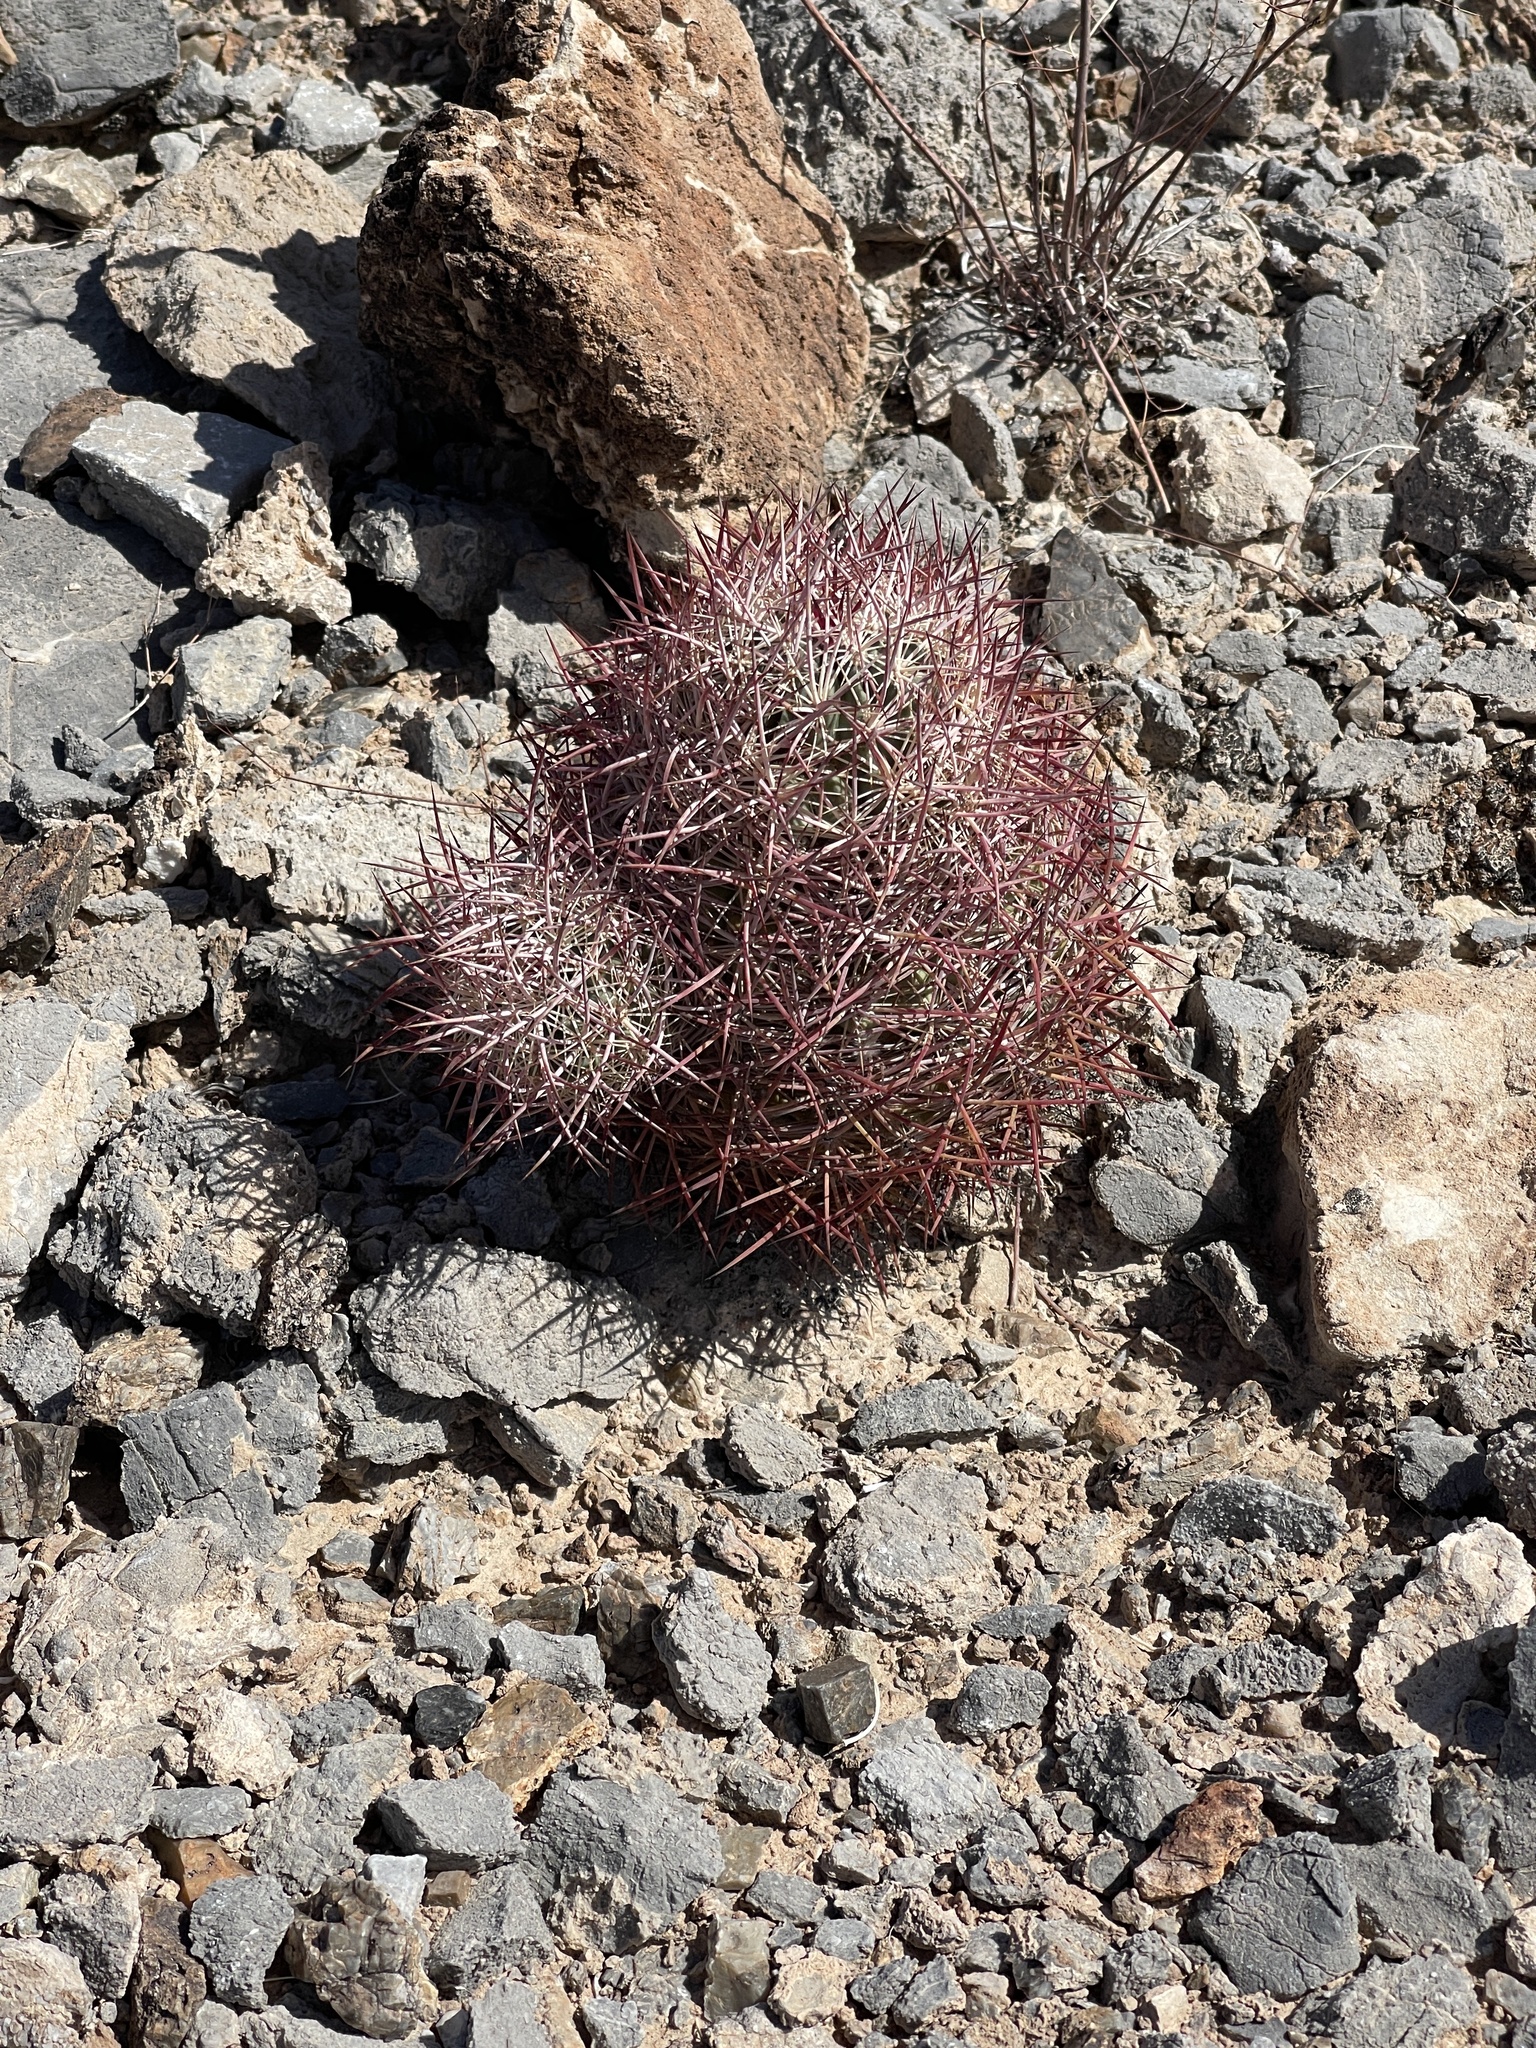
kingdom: Plantae
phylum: Tracheophyta
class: Magnoliopsida
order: Caryophyllales
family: Cactaceae
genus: Sclerocactus
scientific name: Sclerocactus johnsonii
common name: Eight-spine fishhook cactus
